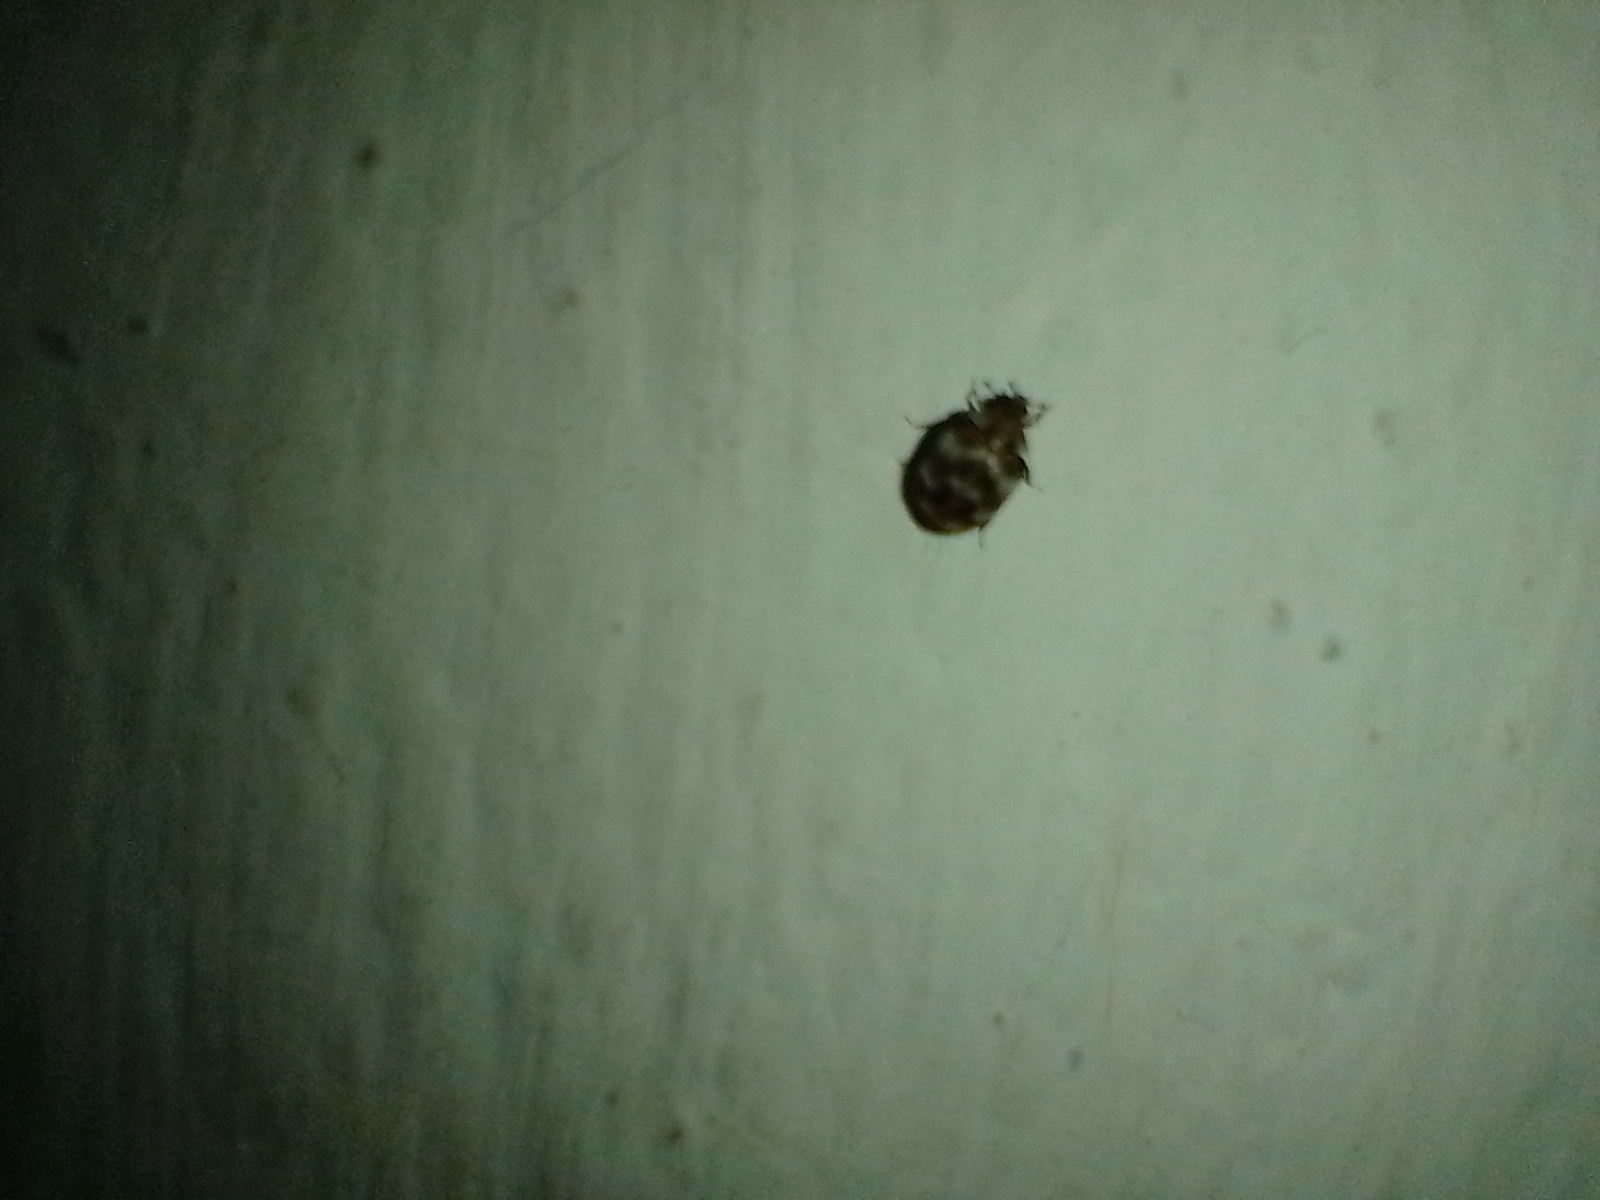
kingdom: Animalia
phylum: Arthropoda
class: Insecta
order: Coleoptera
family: Dermestidae
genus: Anthrenus
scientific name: Anthrenus verbasci
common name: Varied carpet beetle
